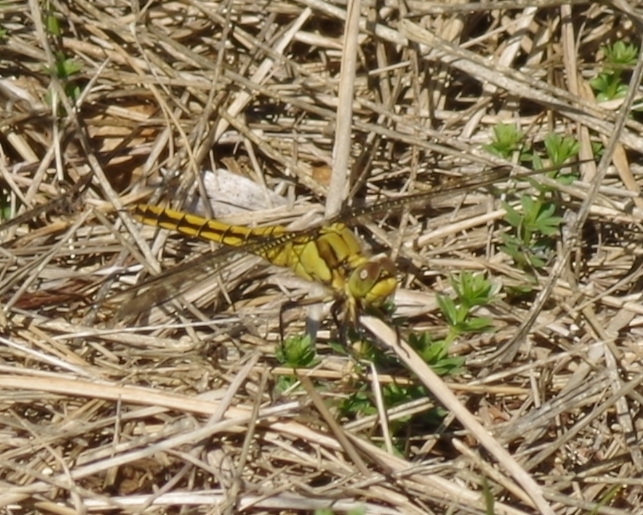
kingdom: Animalia
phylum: Arthropoda
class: Insecta
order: Odonata
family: Libellulidae
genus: Orthetrum
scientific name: Orthetrum cancellatum
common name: Black-tailed skimmer
